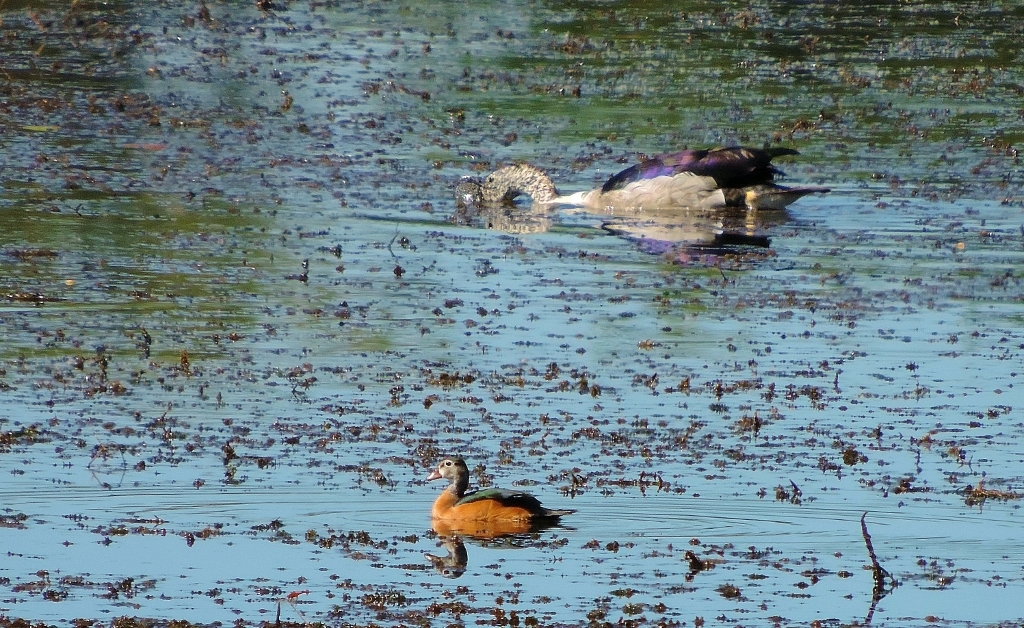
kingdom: Animalia
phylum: Chordata
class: Aves
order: Anseriformes
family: Anatidae
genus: Sarkidiornis
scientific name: Sarkidiornis melanotos
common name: Comb duck
